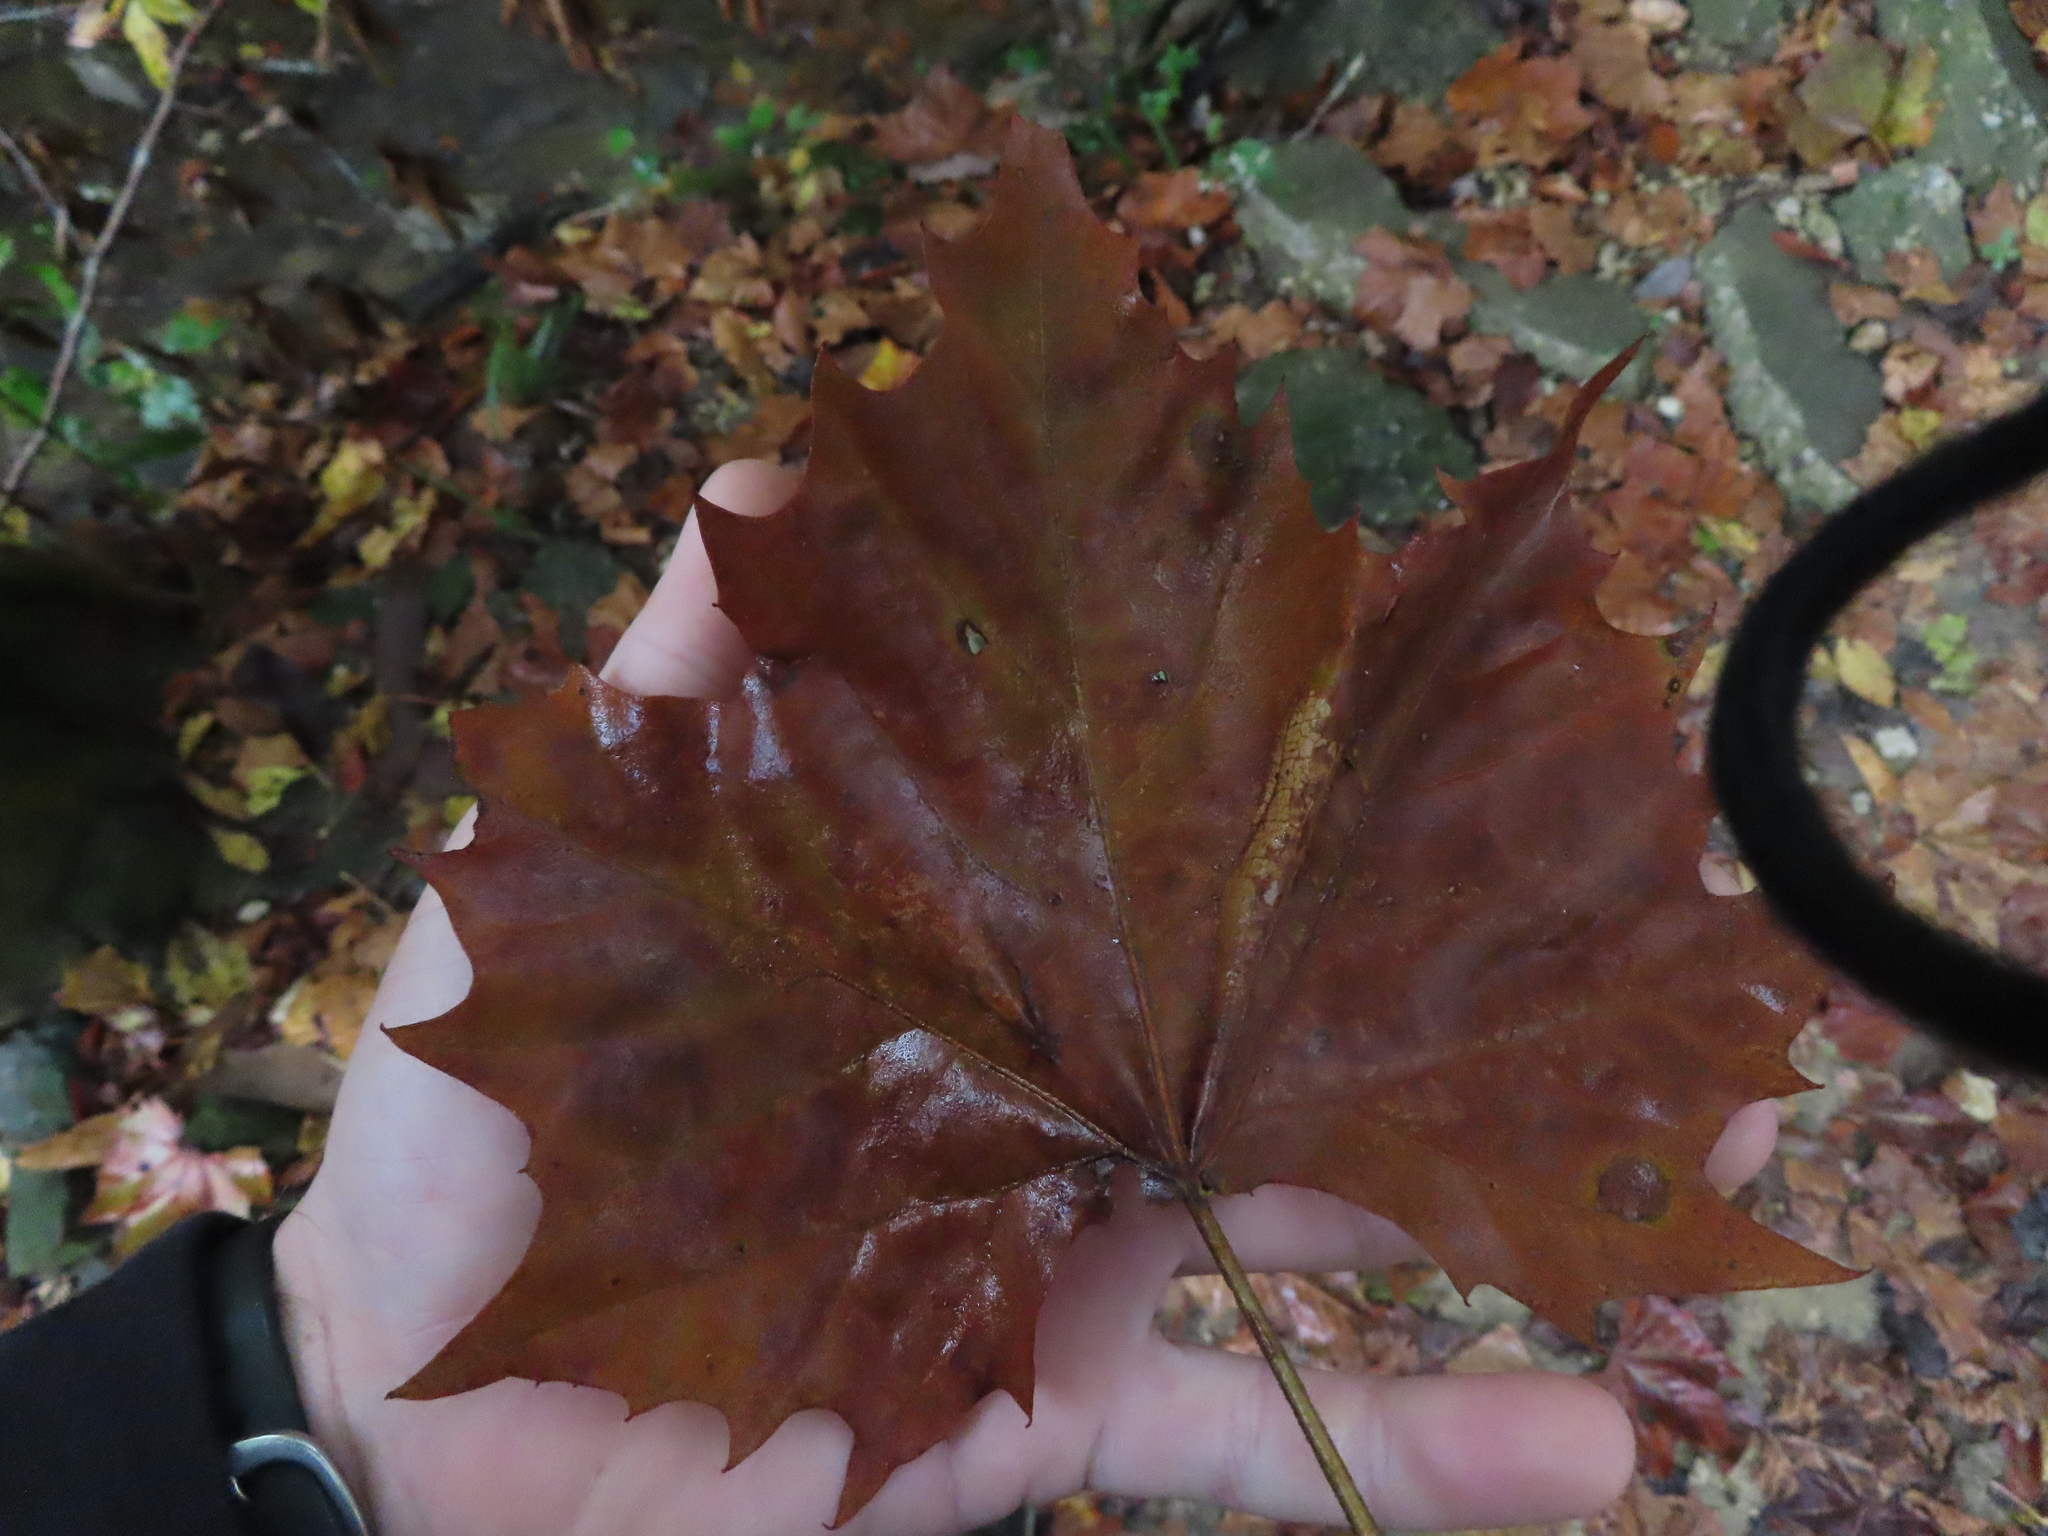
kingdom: Plantae
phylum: Tracheophyta
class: Magnoliopsida
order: Proteales
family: Platanaceae
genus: Platanus
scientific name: Platanus occidentalis
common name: American sycamore
